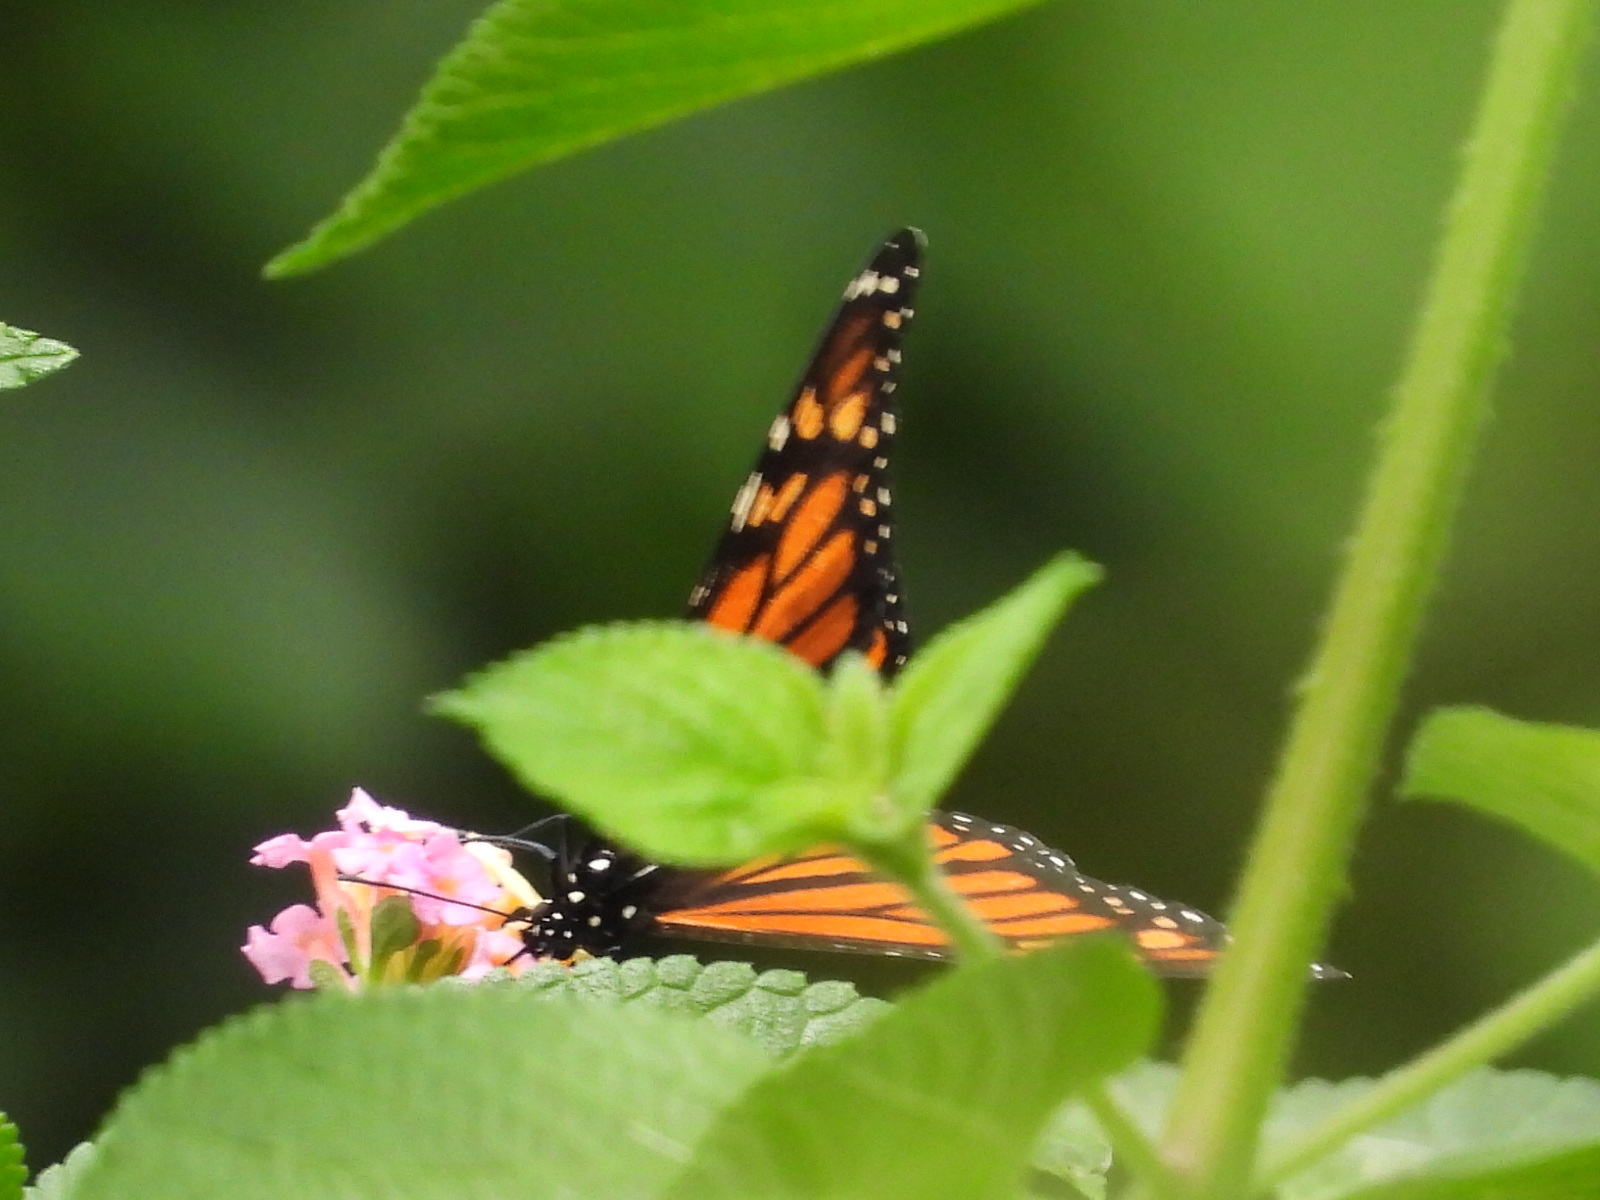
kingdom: Animalia
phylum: Arthropoda
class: Insecta
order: Lepidoptera
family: Nymphalidae
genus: Danaus
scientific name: Danaus plexippus
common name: Monarch
